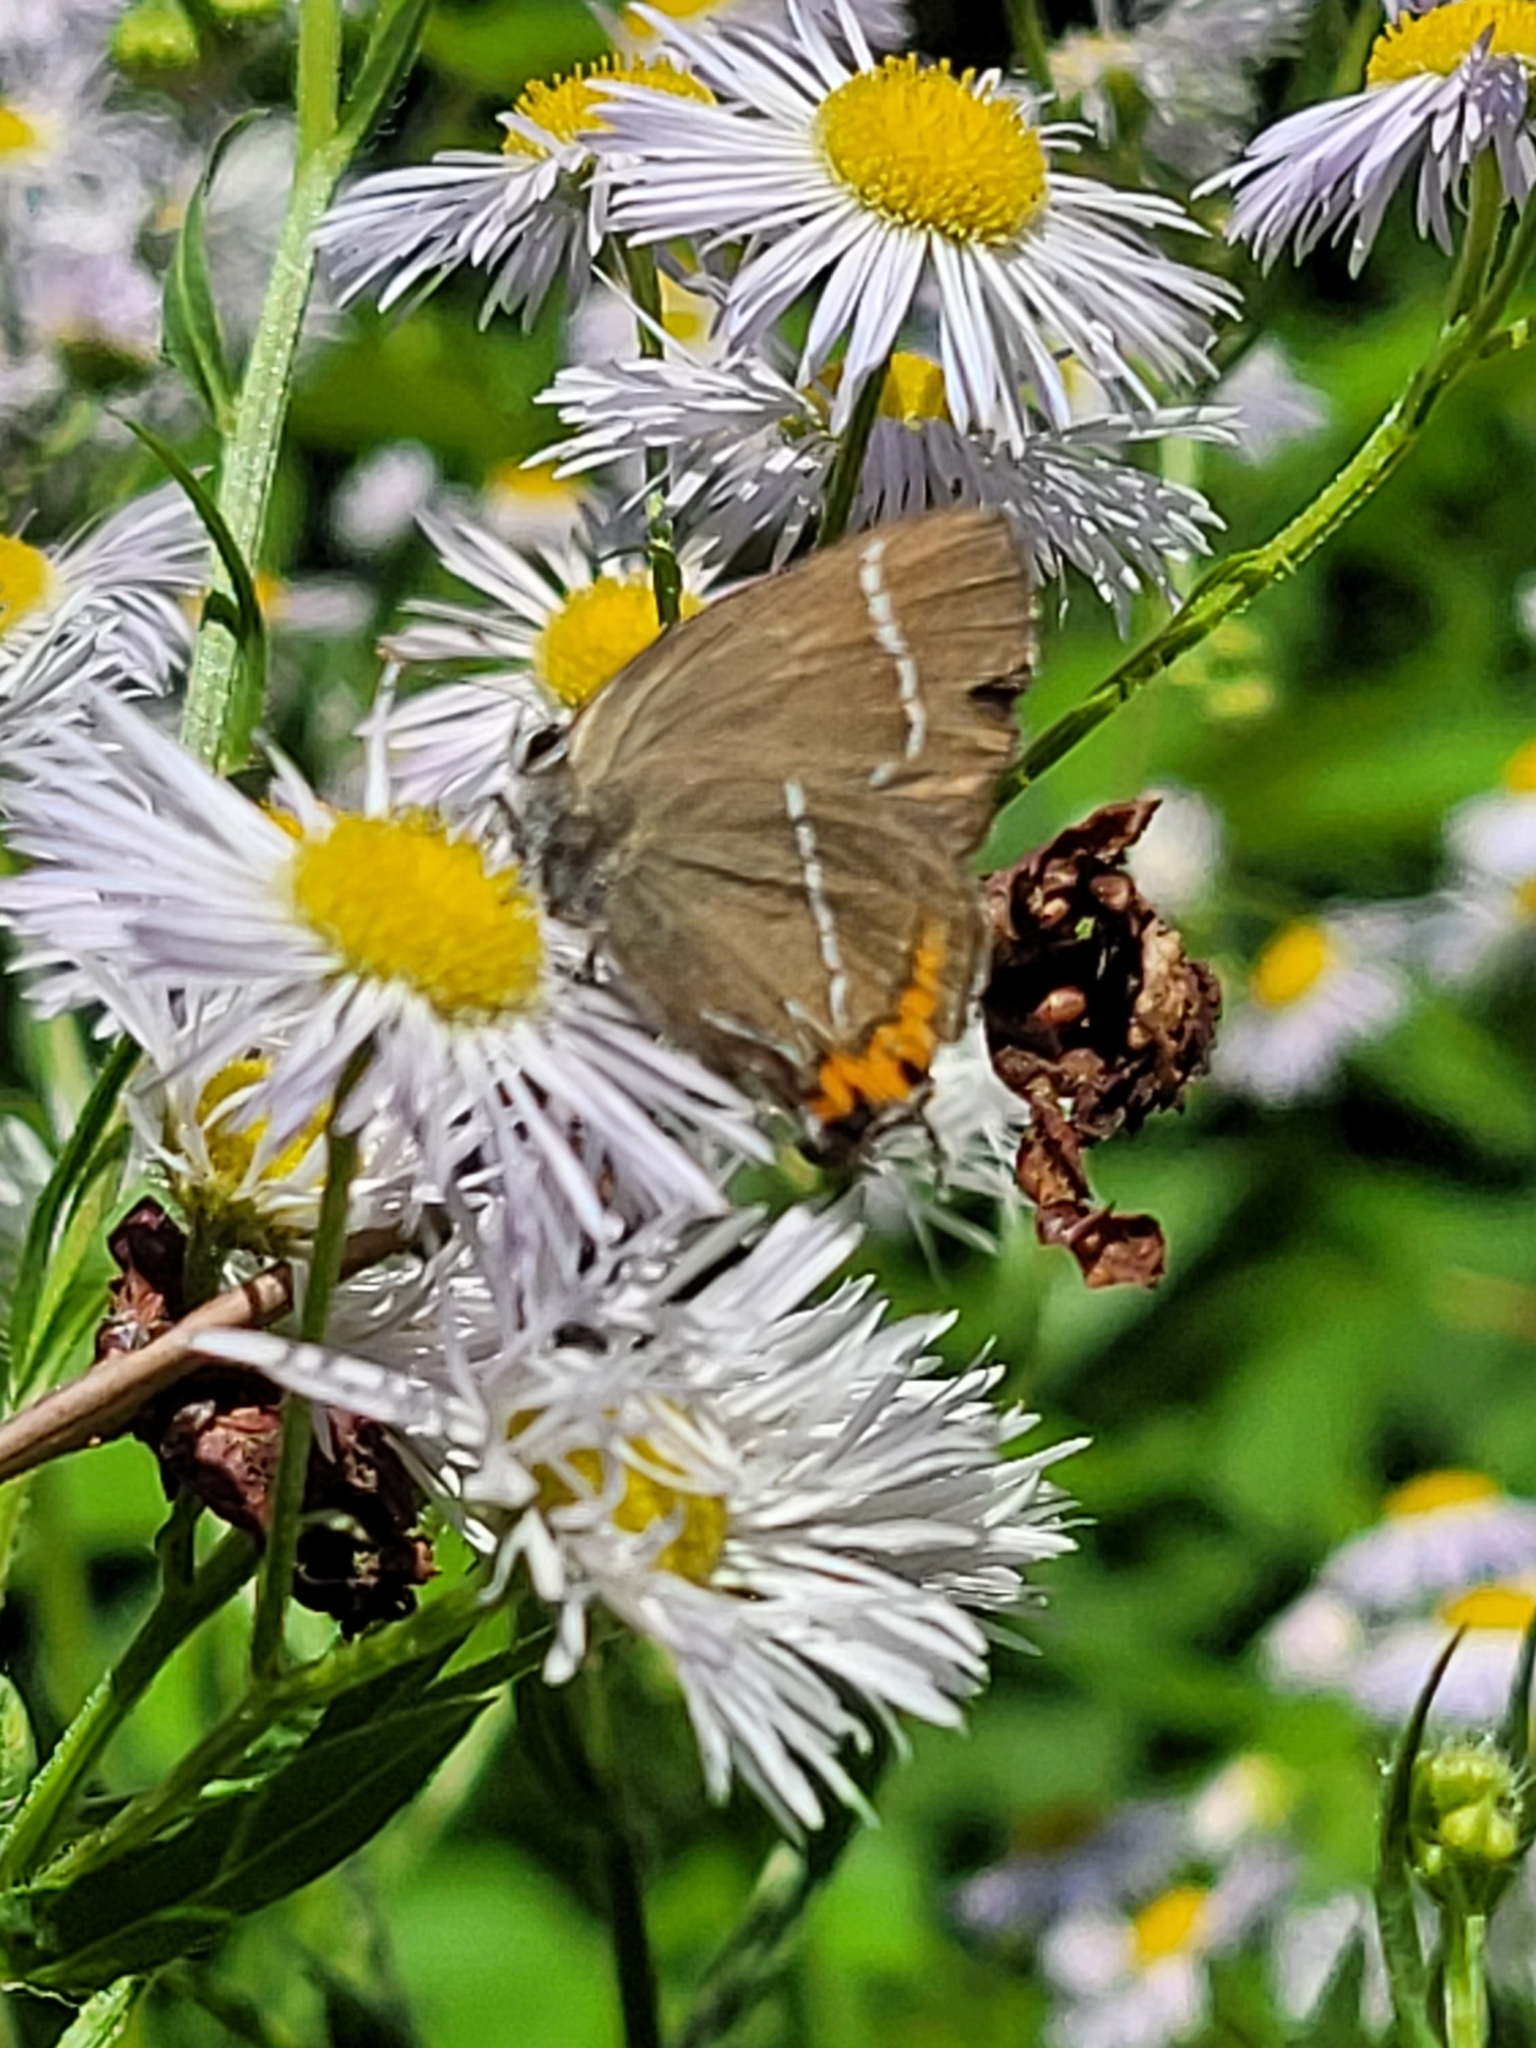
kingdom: Animalia
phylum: Arthropoda
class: Insecta
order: Lepidoptera
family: Lycaenidae
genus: Satyrium
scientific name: Satyrium w-album
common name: White-letter hairstreak
